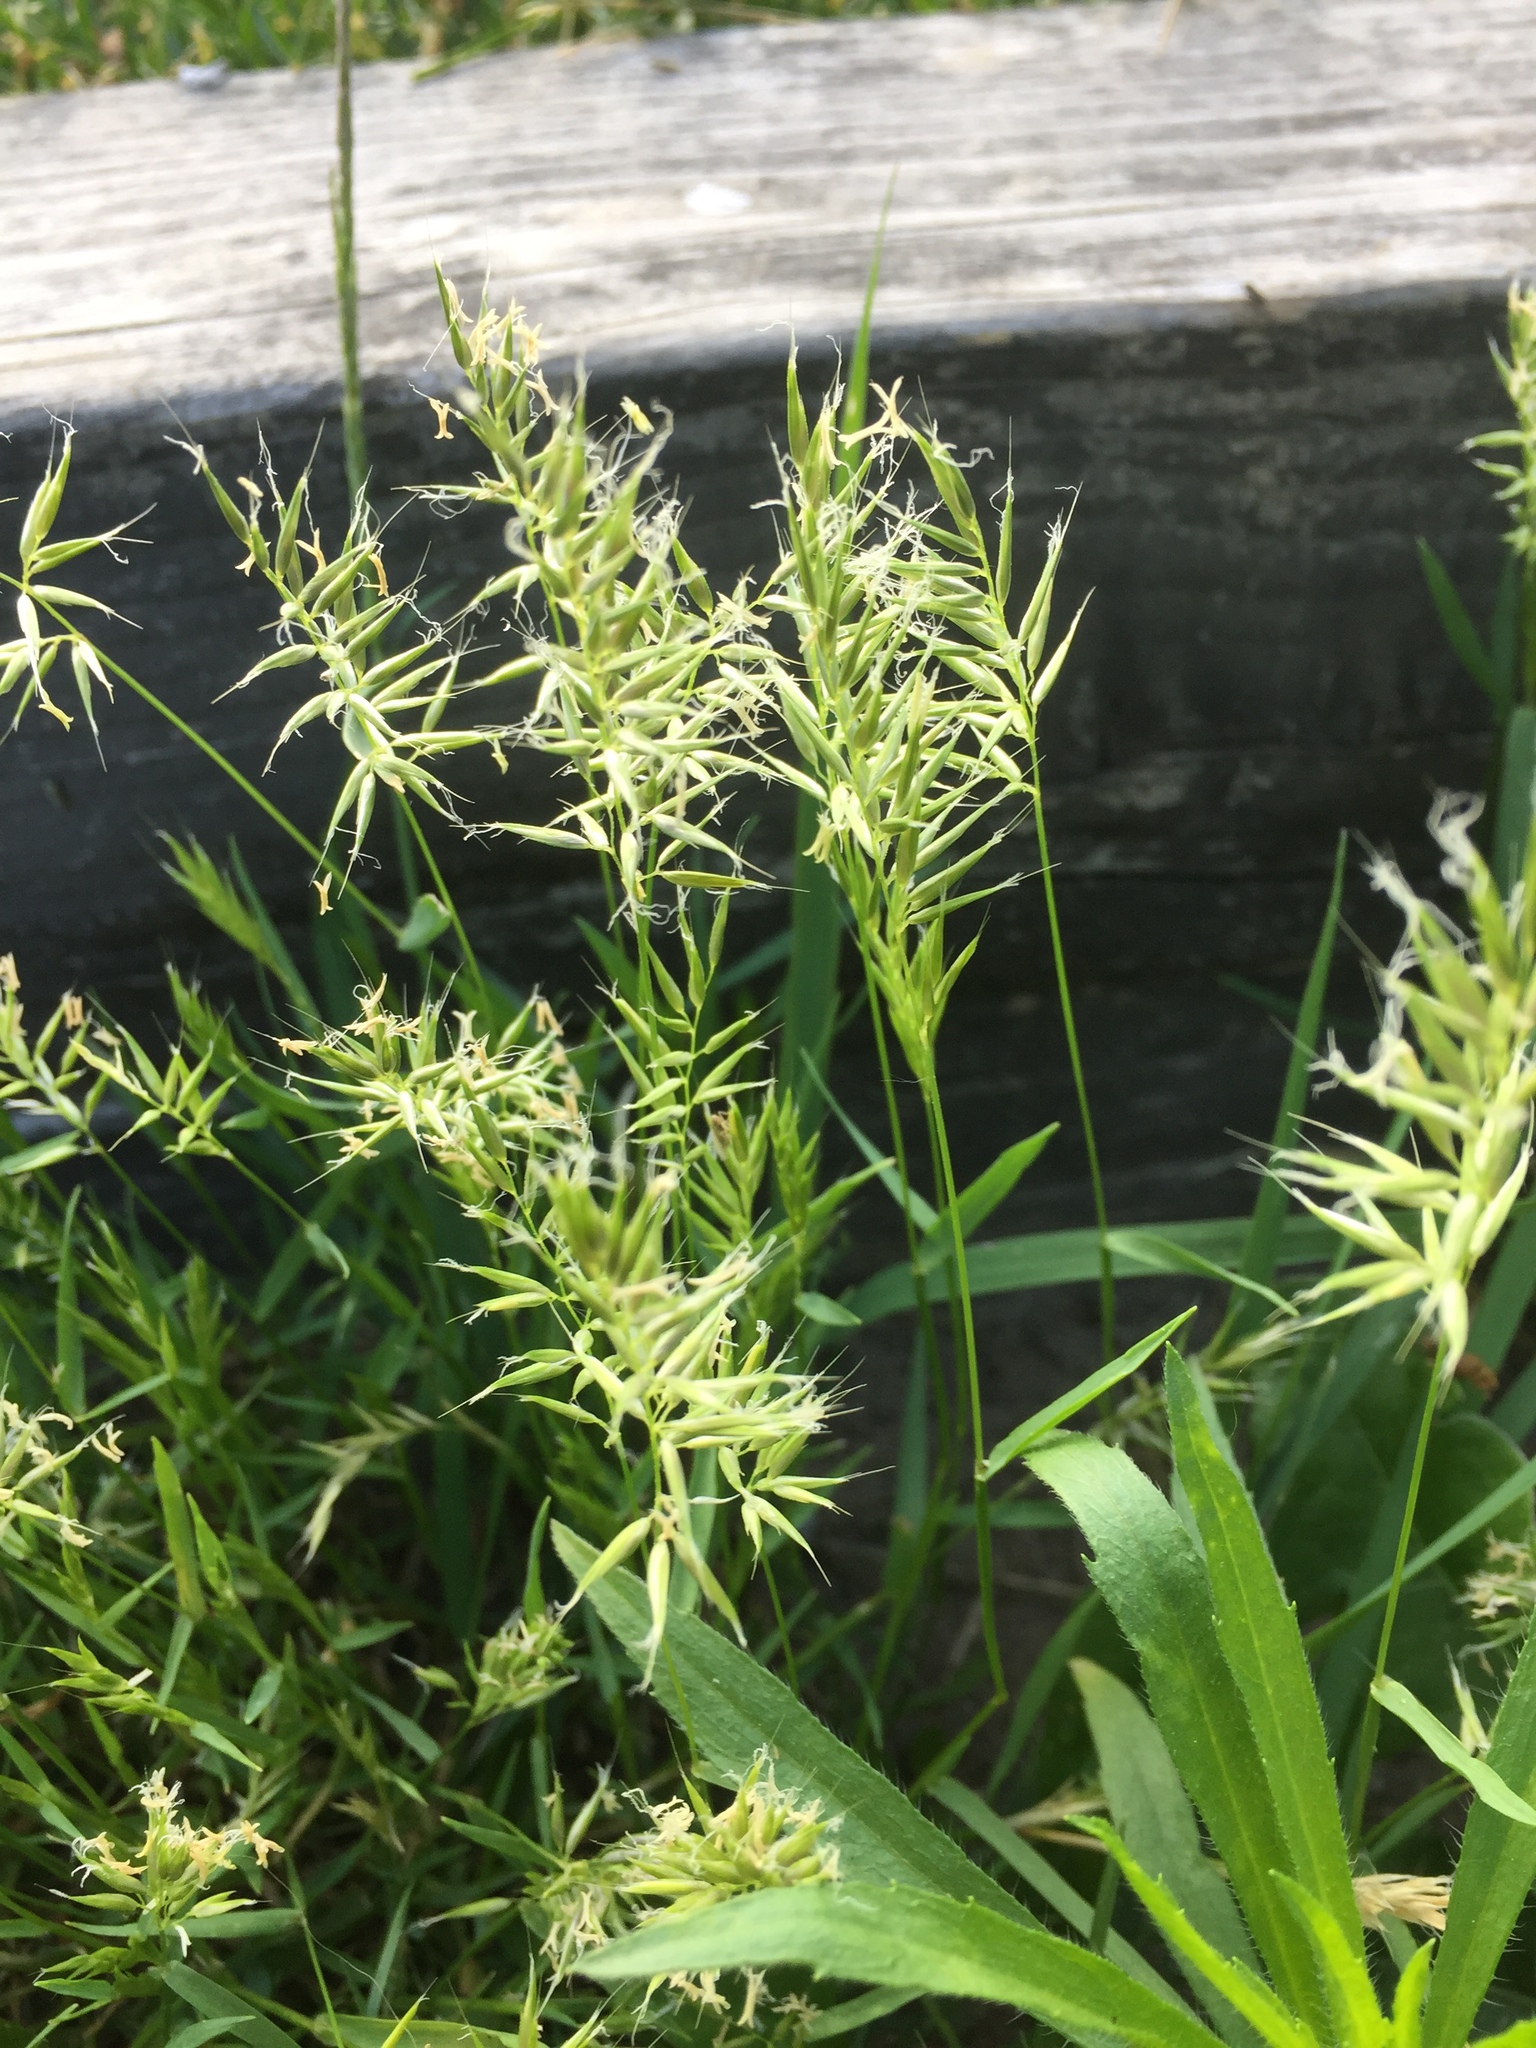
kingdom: Plantae
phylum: Tracheophyta
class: Liliopsida
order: Poales
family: Poaceae
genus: Anthoxanthum
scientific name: Anthoxanthum aristatum
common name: Annual vernal-grass
